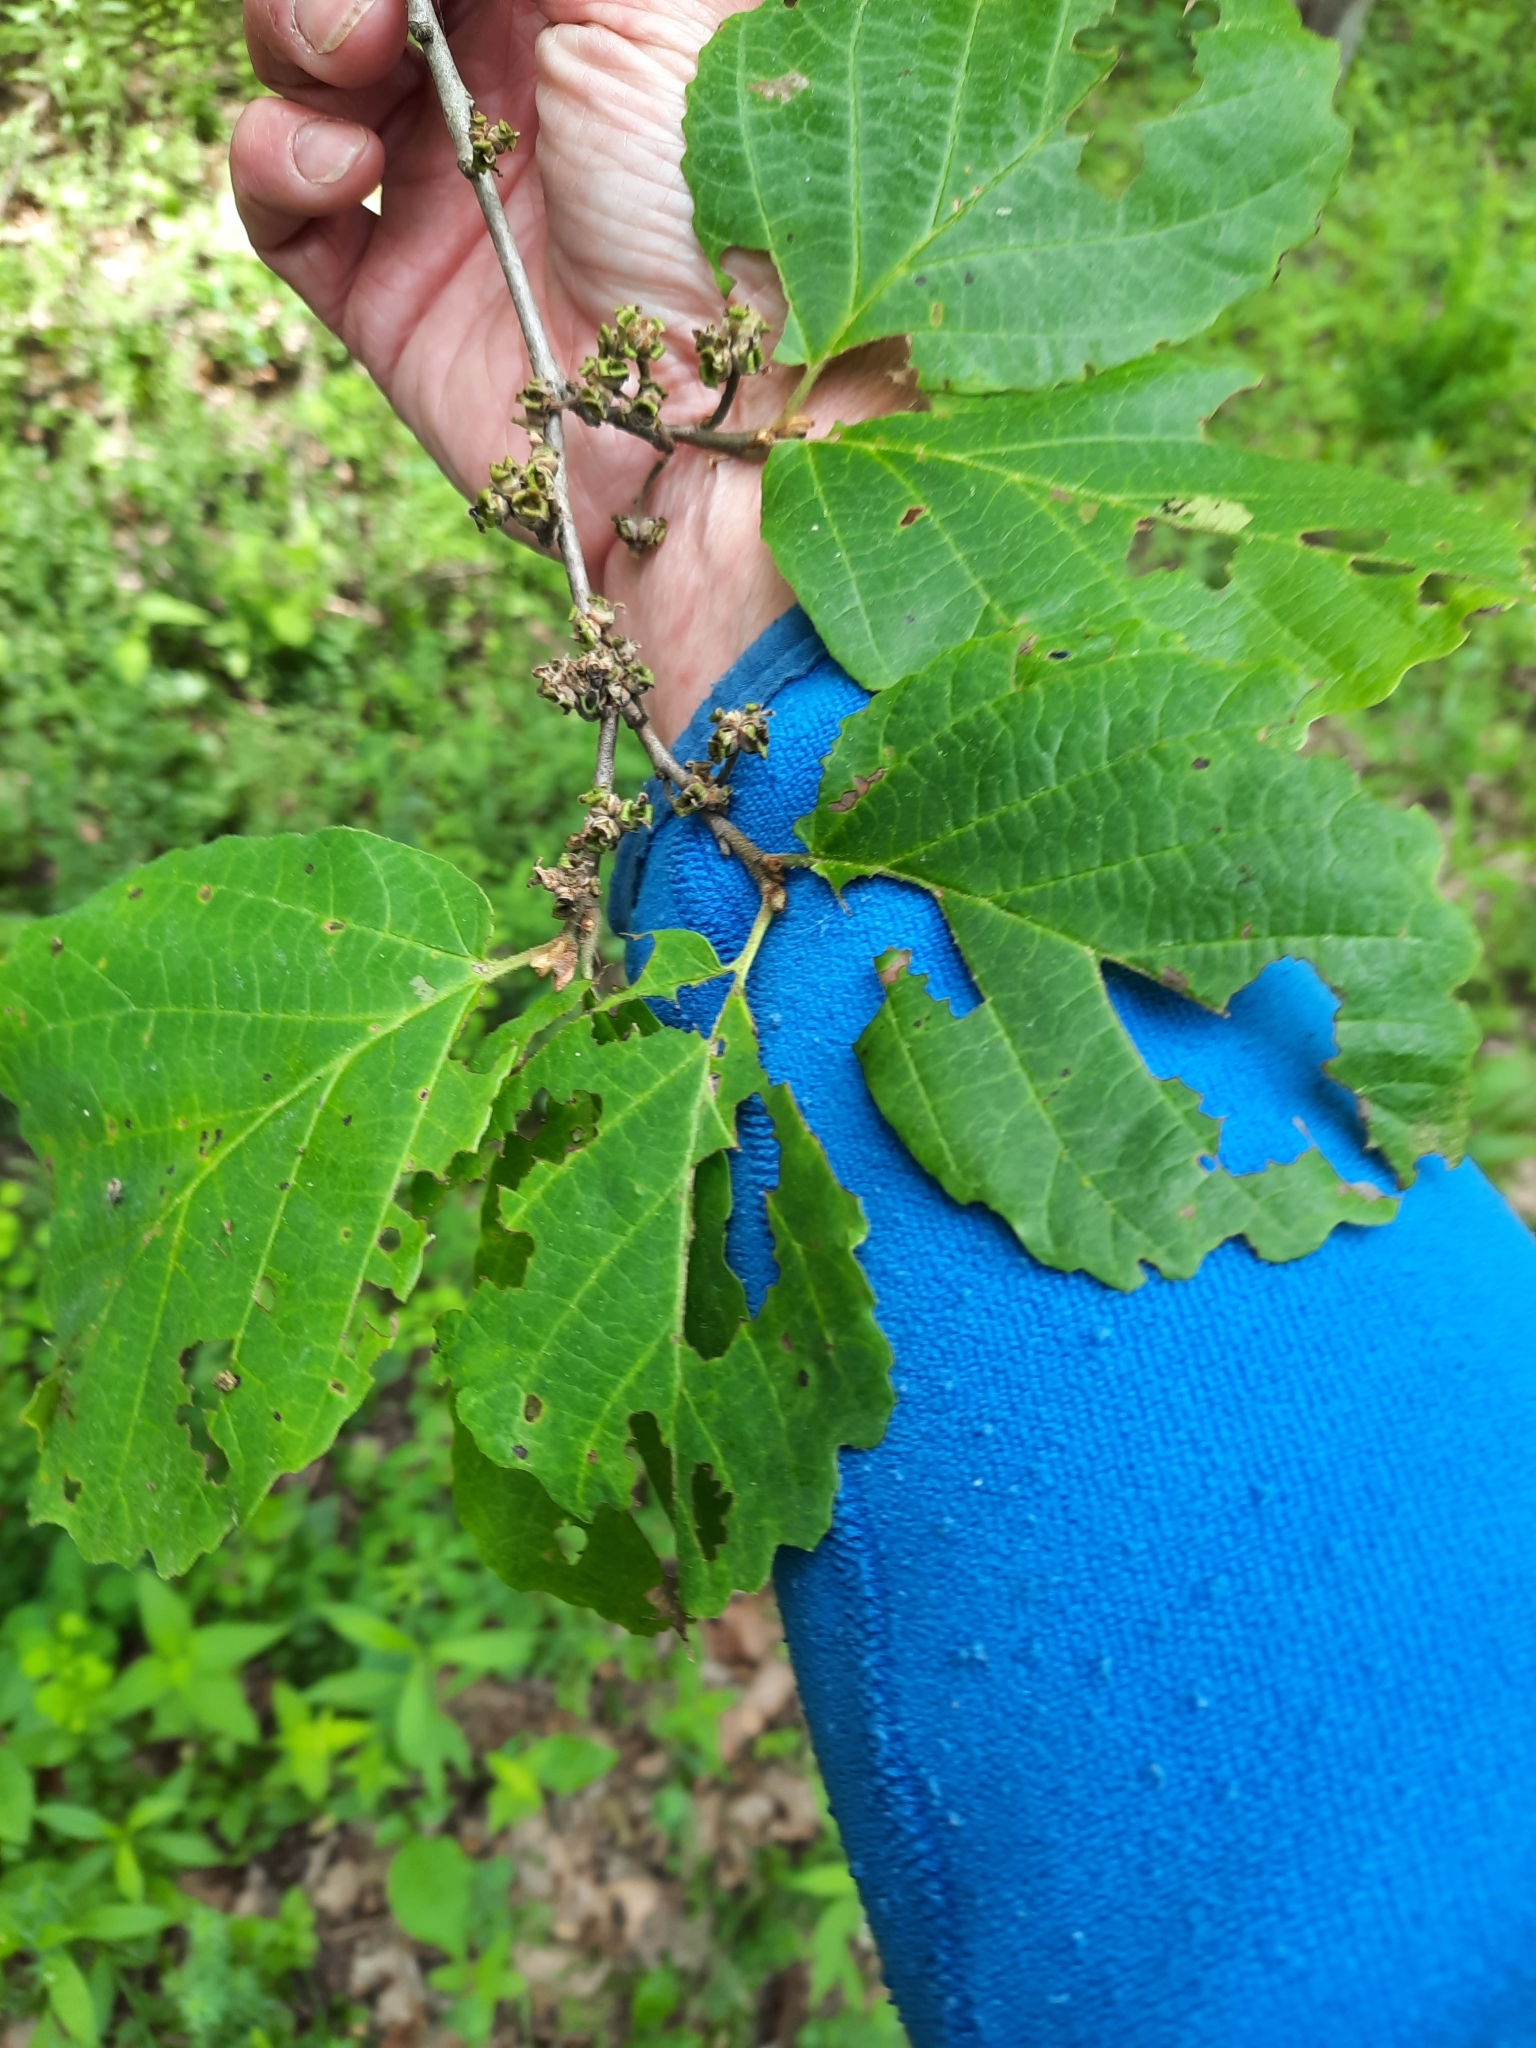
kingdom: Plantae
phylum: Tracheophyta
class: Magnoliopsida
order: Saxifragales
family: Hamamelidaceae
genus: Hamamelis
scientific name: Hamamelis virginiana
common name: Witch-hazel
